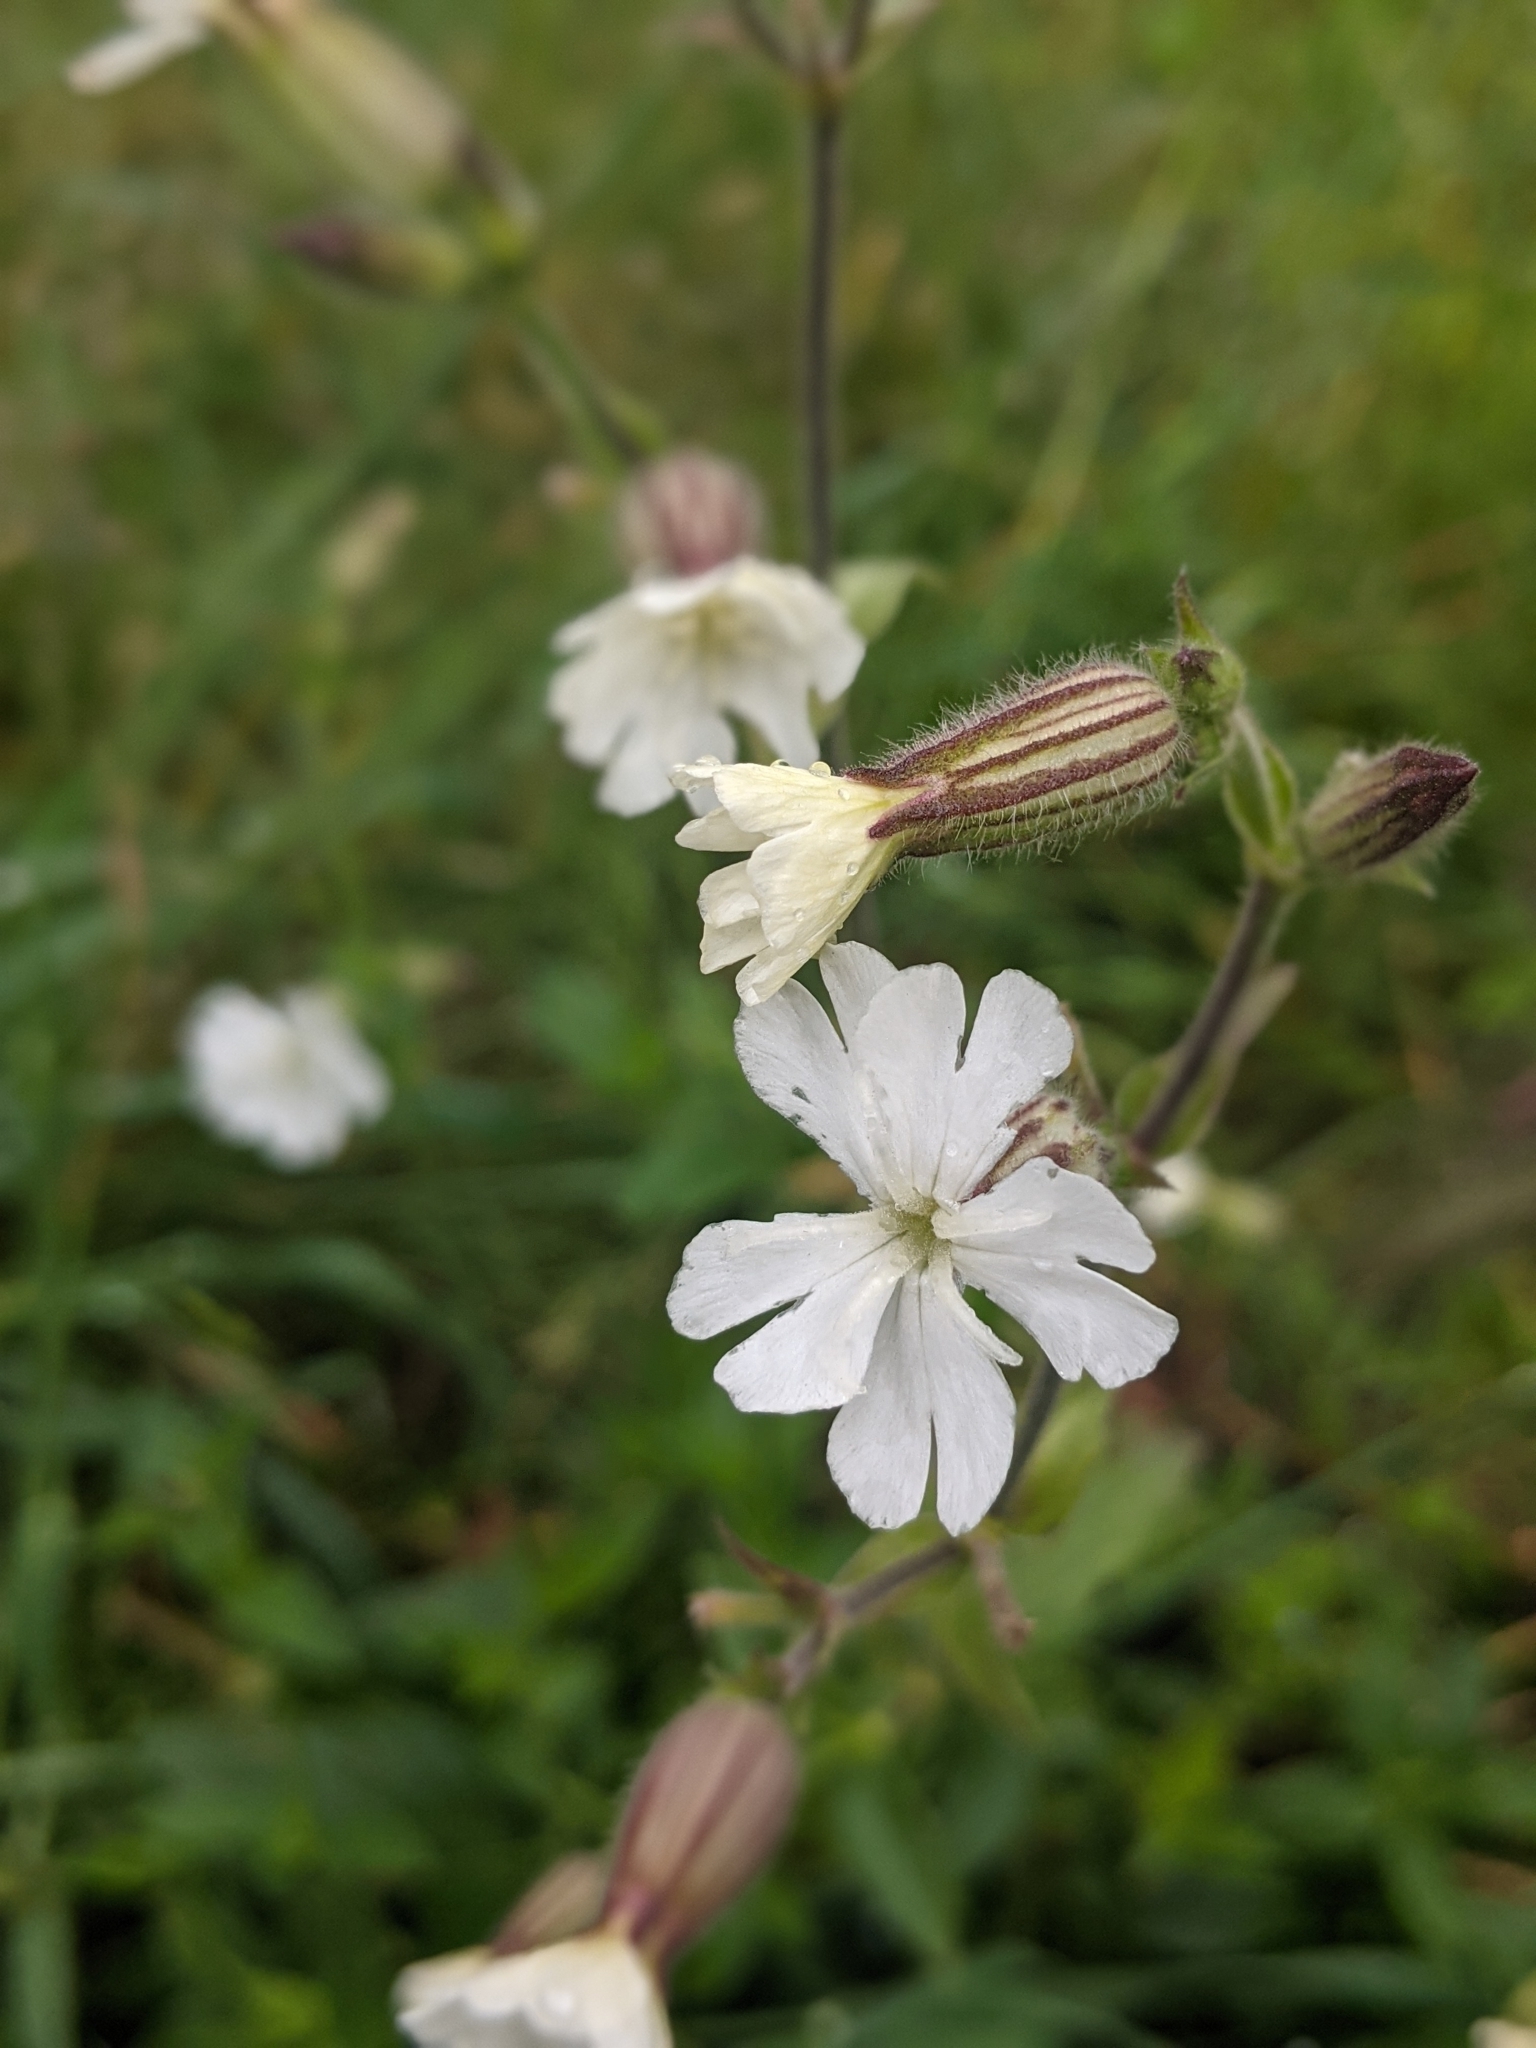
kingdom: Plantae
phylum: Tracheophyta
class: Magnoliopsida
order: Caryophyllales
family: Caryophyllaceae
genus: Silene
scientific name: Silene latifolia
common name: White campion
